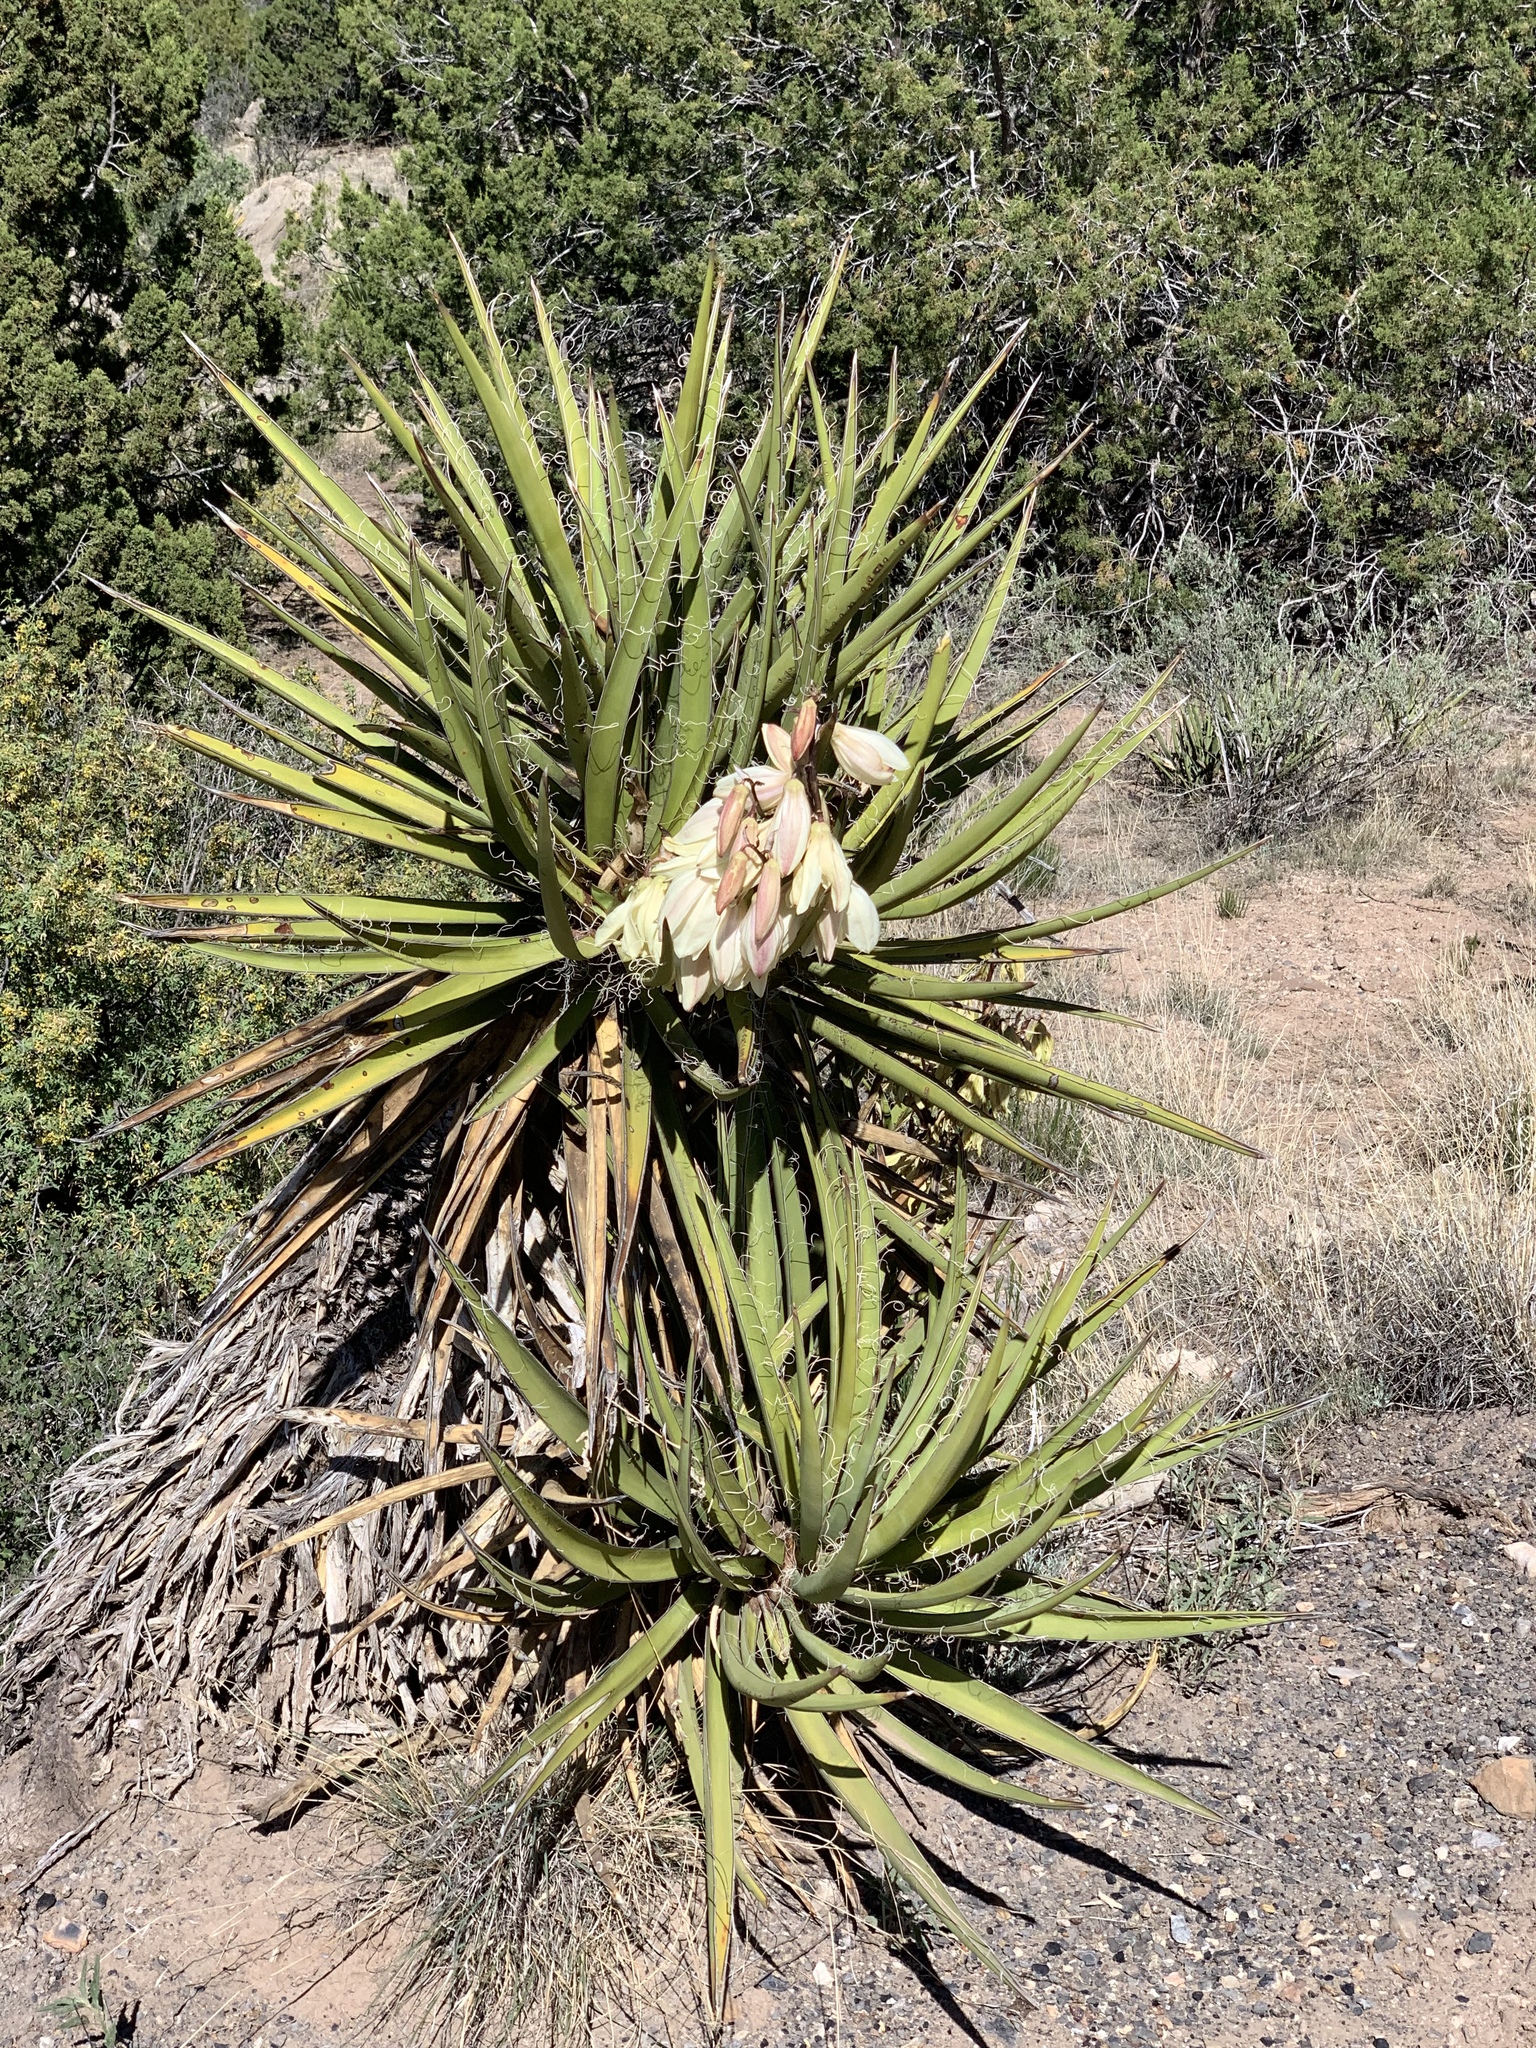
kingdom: Plantae
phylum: Tracheophyta
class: Liliopsida
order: Asparagales
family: Asparagaceae
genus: Yucca
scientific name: Yucca baccata
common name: Banana yucca
